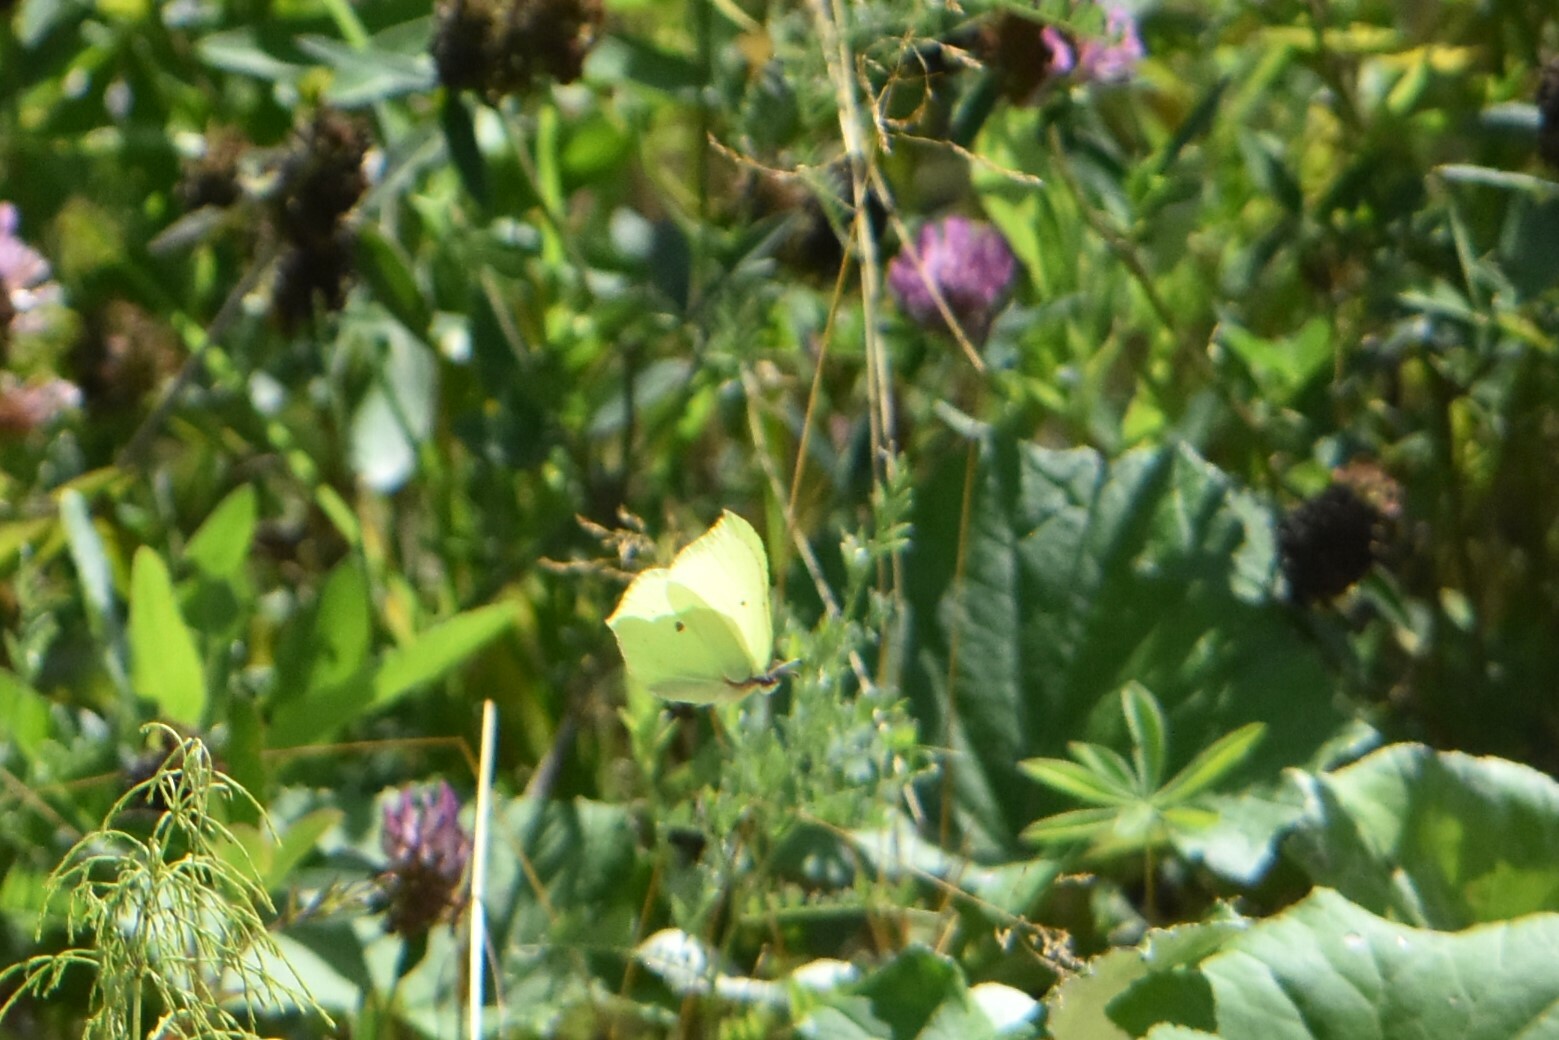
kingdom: Animalia
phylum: Arthropoda
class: Insecta
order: Lepidoptera
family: Pieridae
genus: Gonepteryx
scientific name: Gonepteryx rhamni
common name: Brimstone
